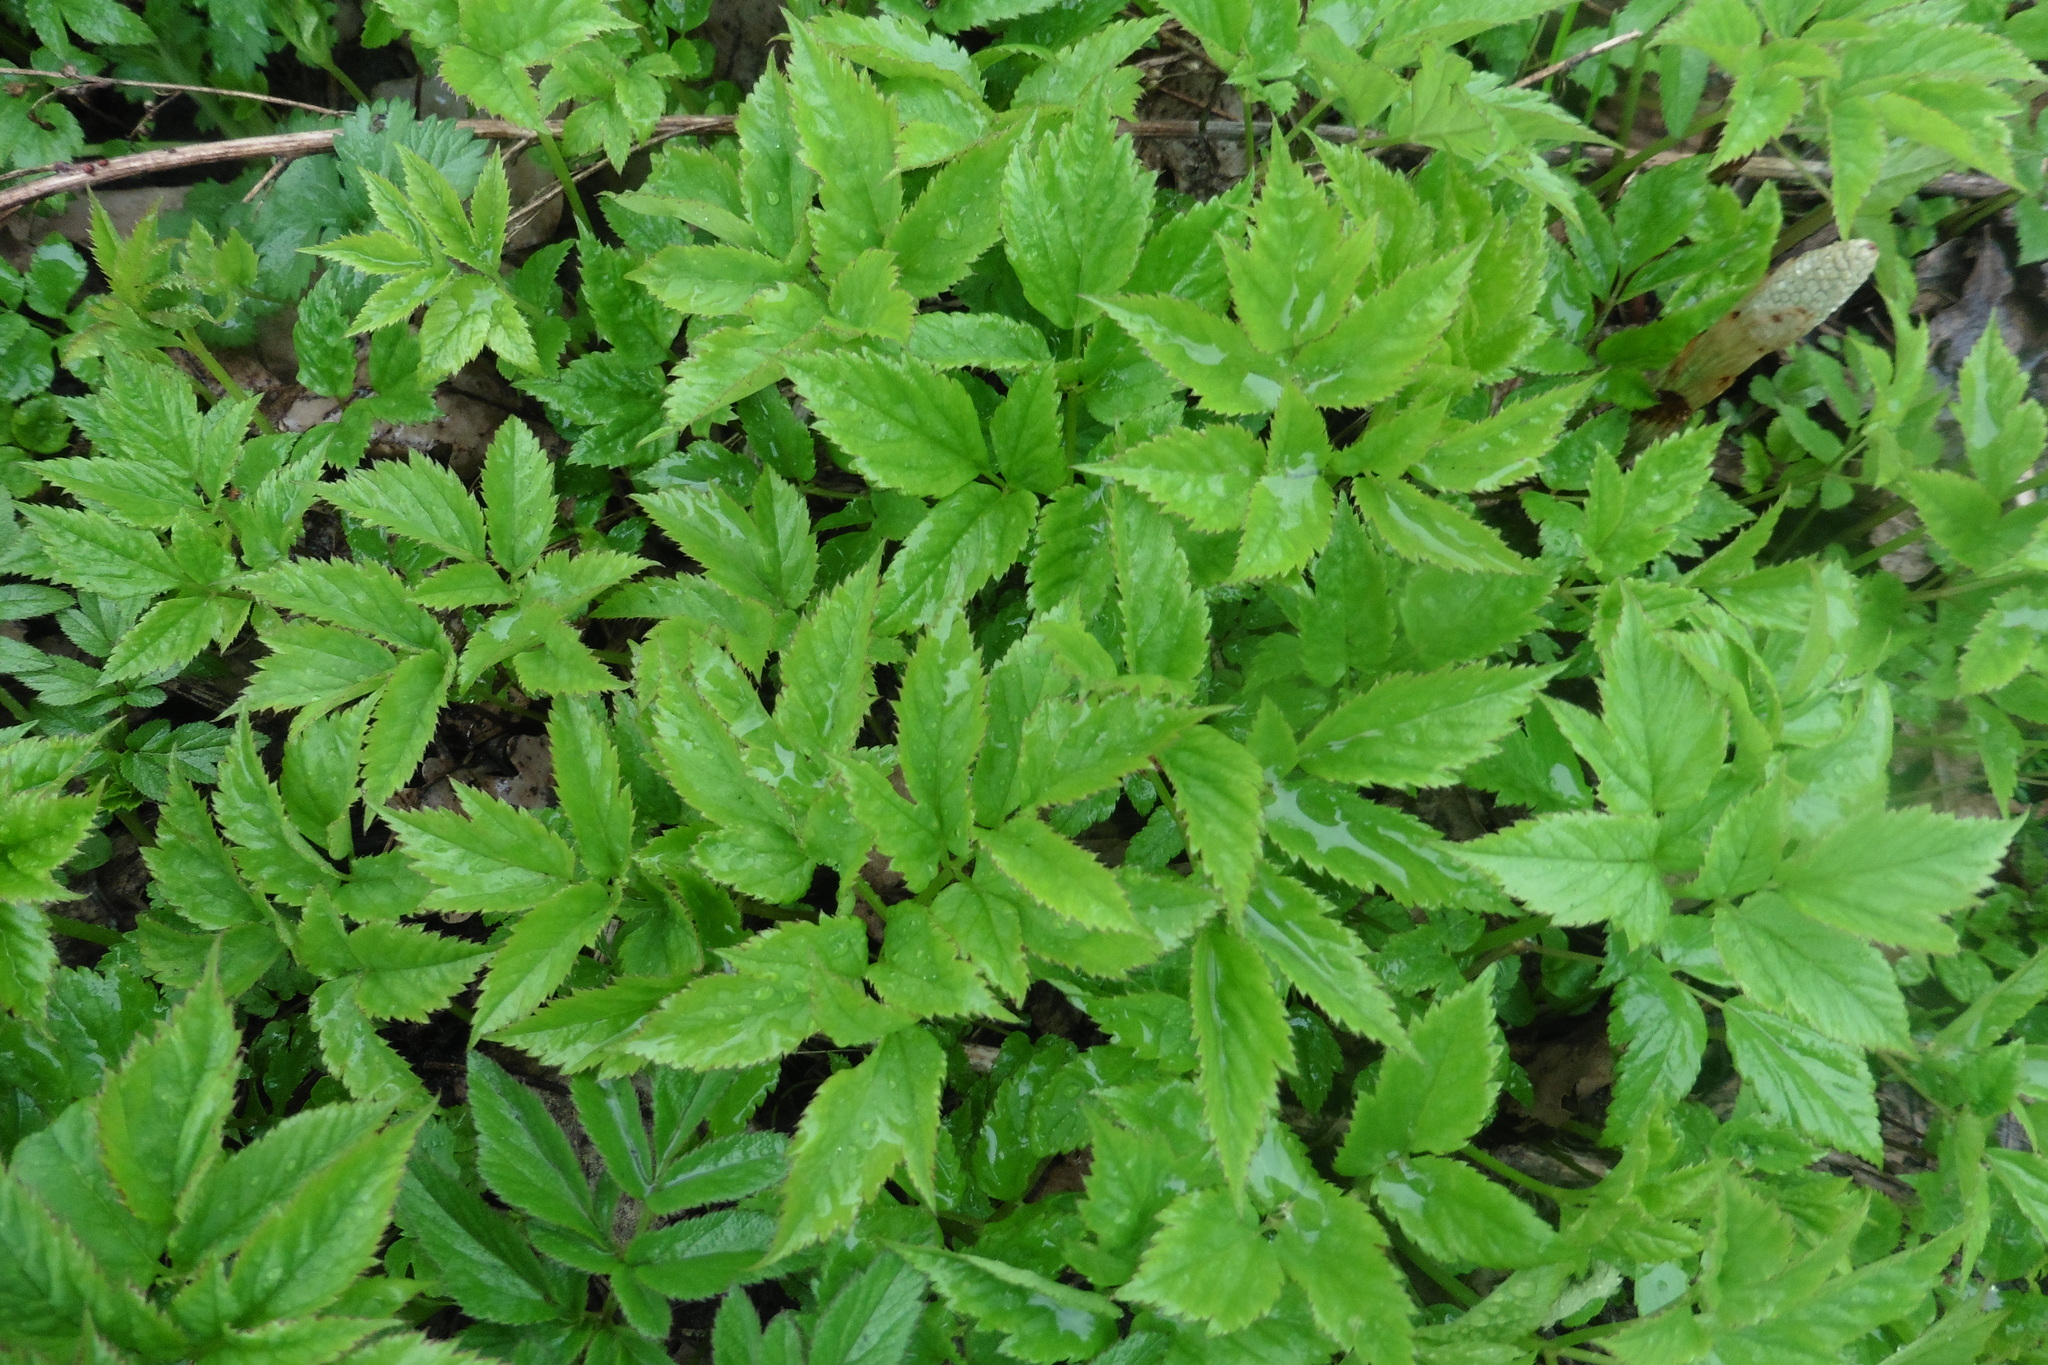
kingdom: Plantae
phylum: Tracheophyta
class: Magnoliopsida
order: Apiales
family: Apiaceae
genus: Aegopodium
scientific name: Aegopodium podagraria
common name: Ground-elder
